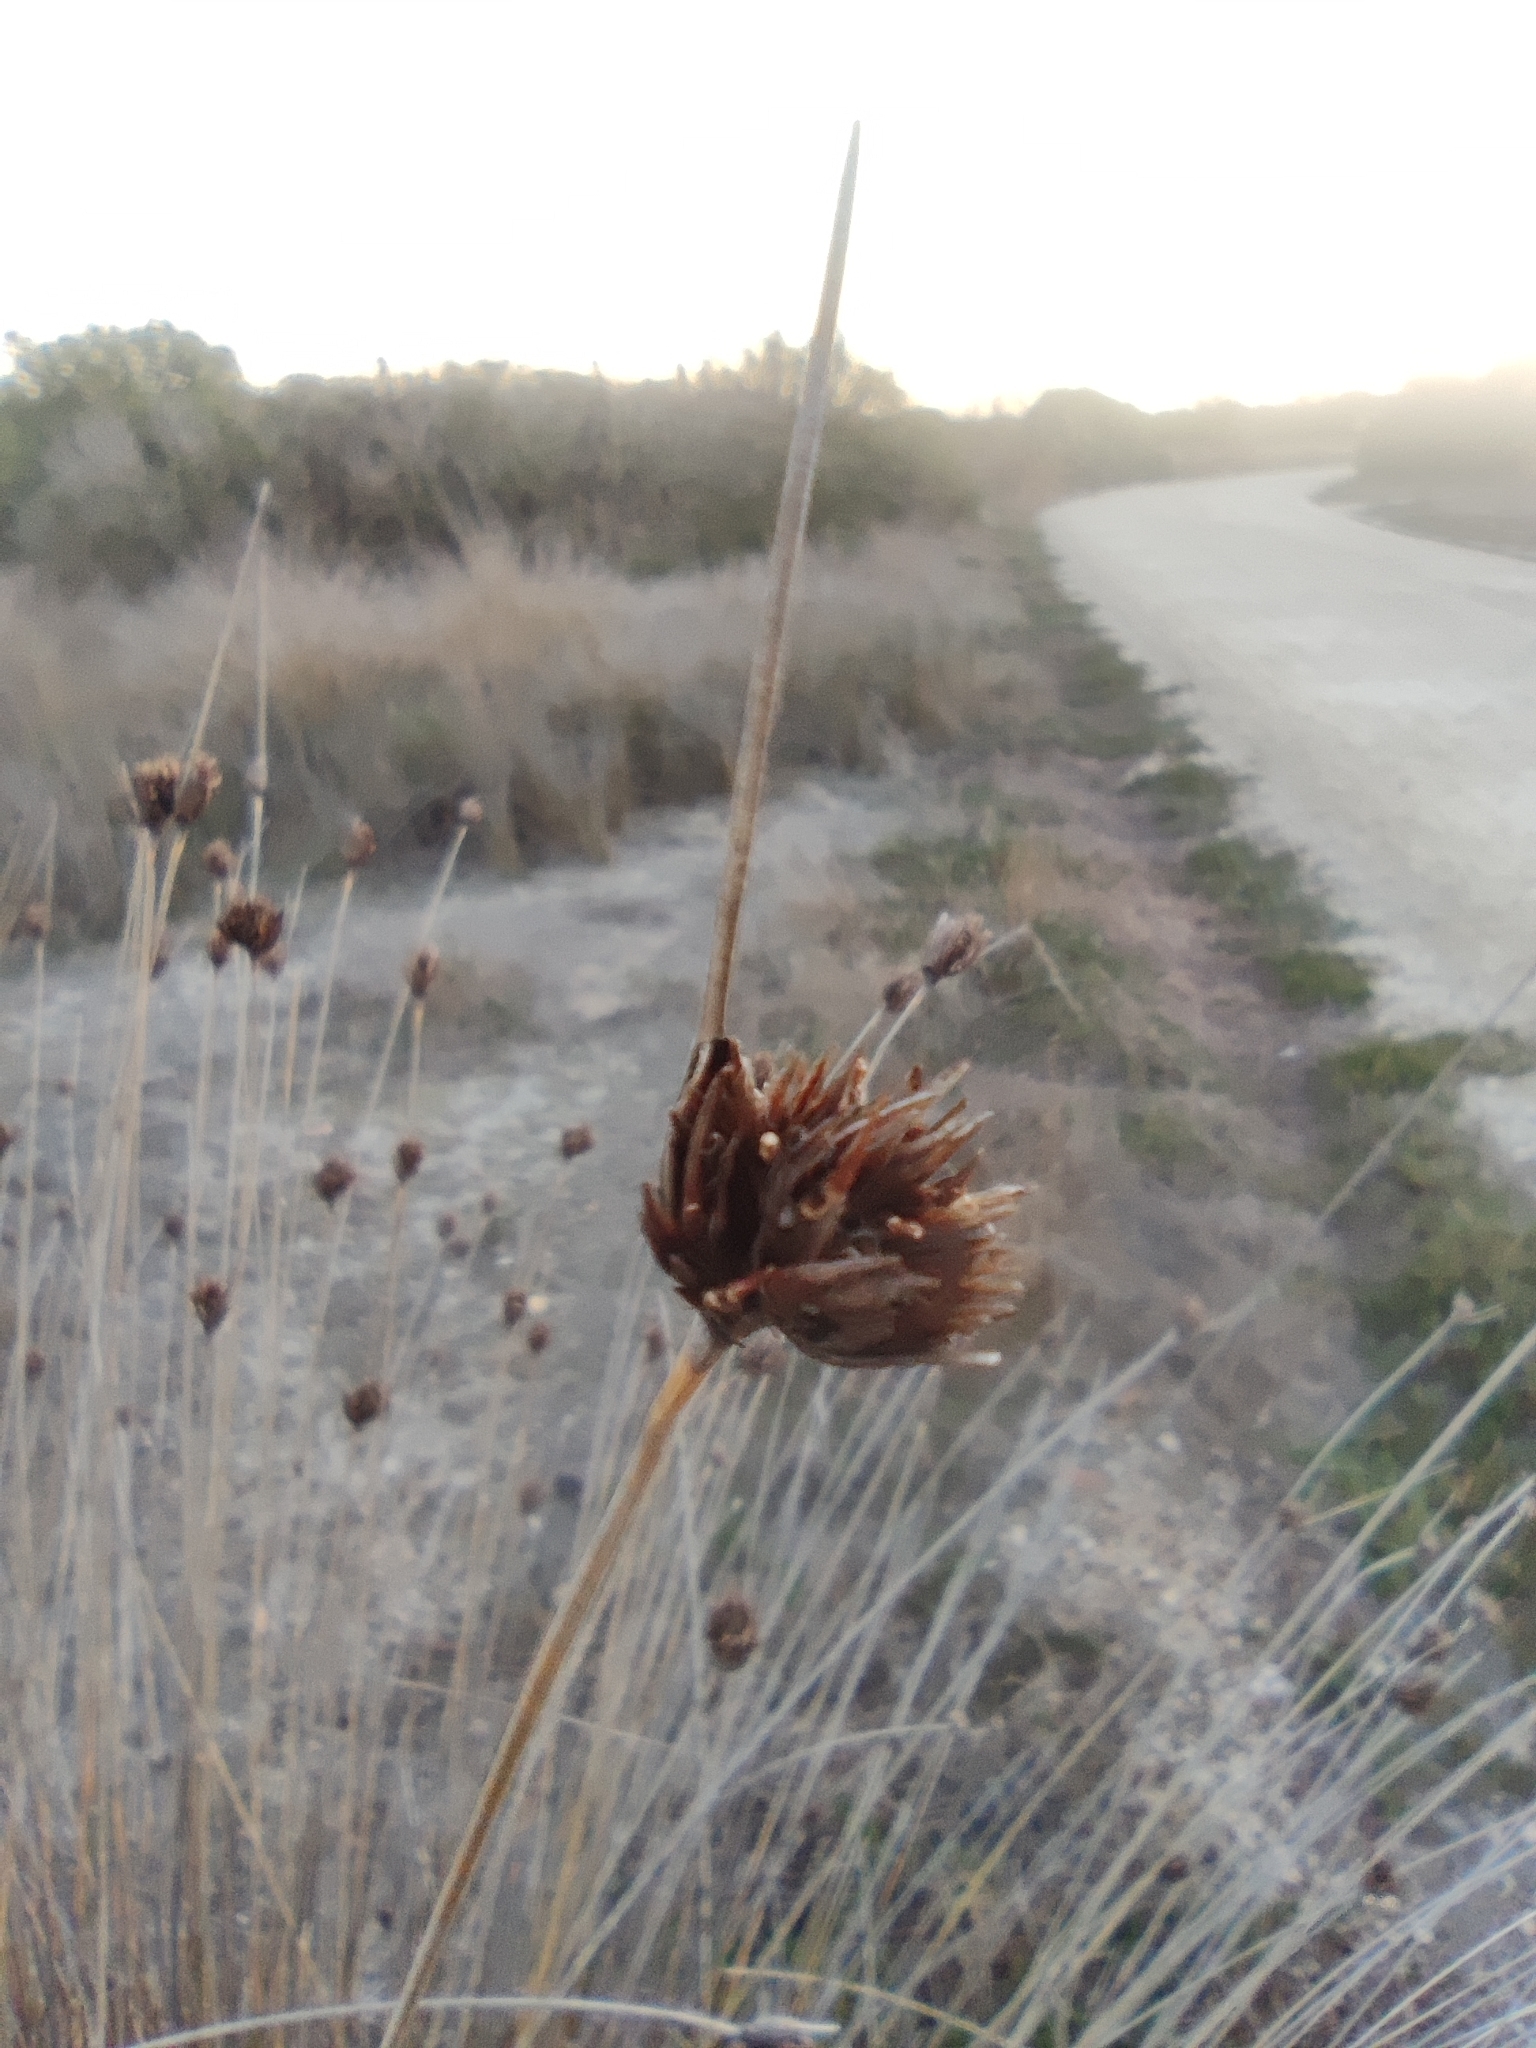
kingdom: Plantae
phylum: Tracheophyta
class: Liliopsida
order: Poales
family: Cyperaceae
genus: Schoenus
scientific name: Schoenus nigricans
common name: Black bog-rush
